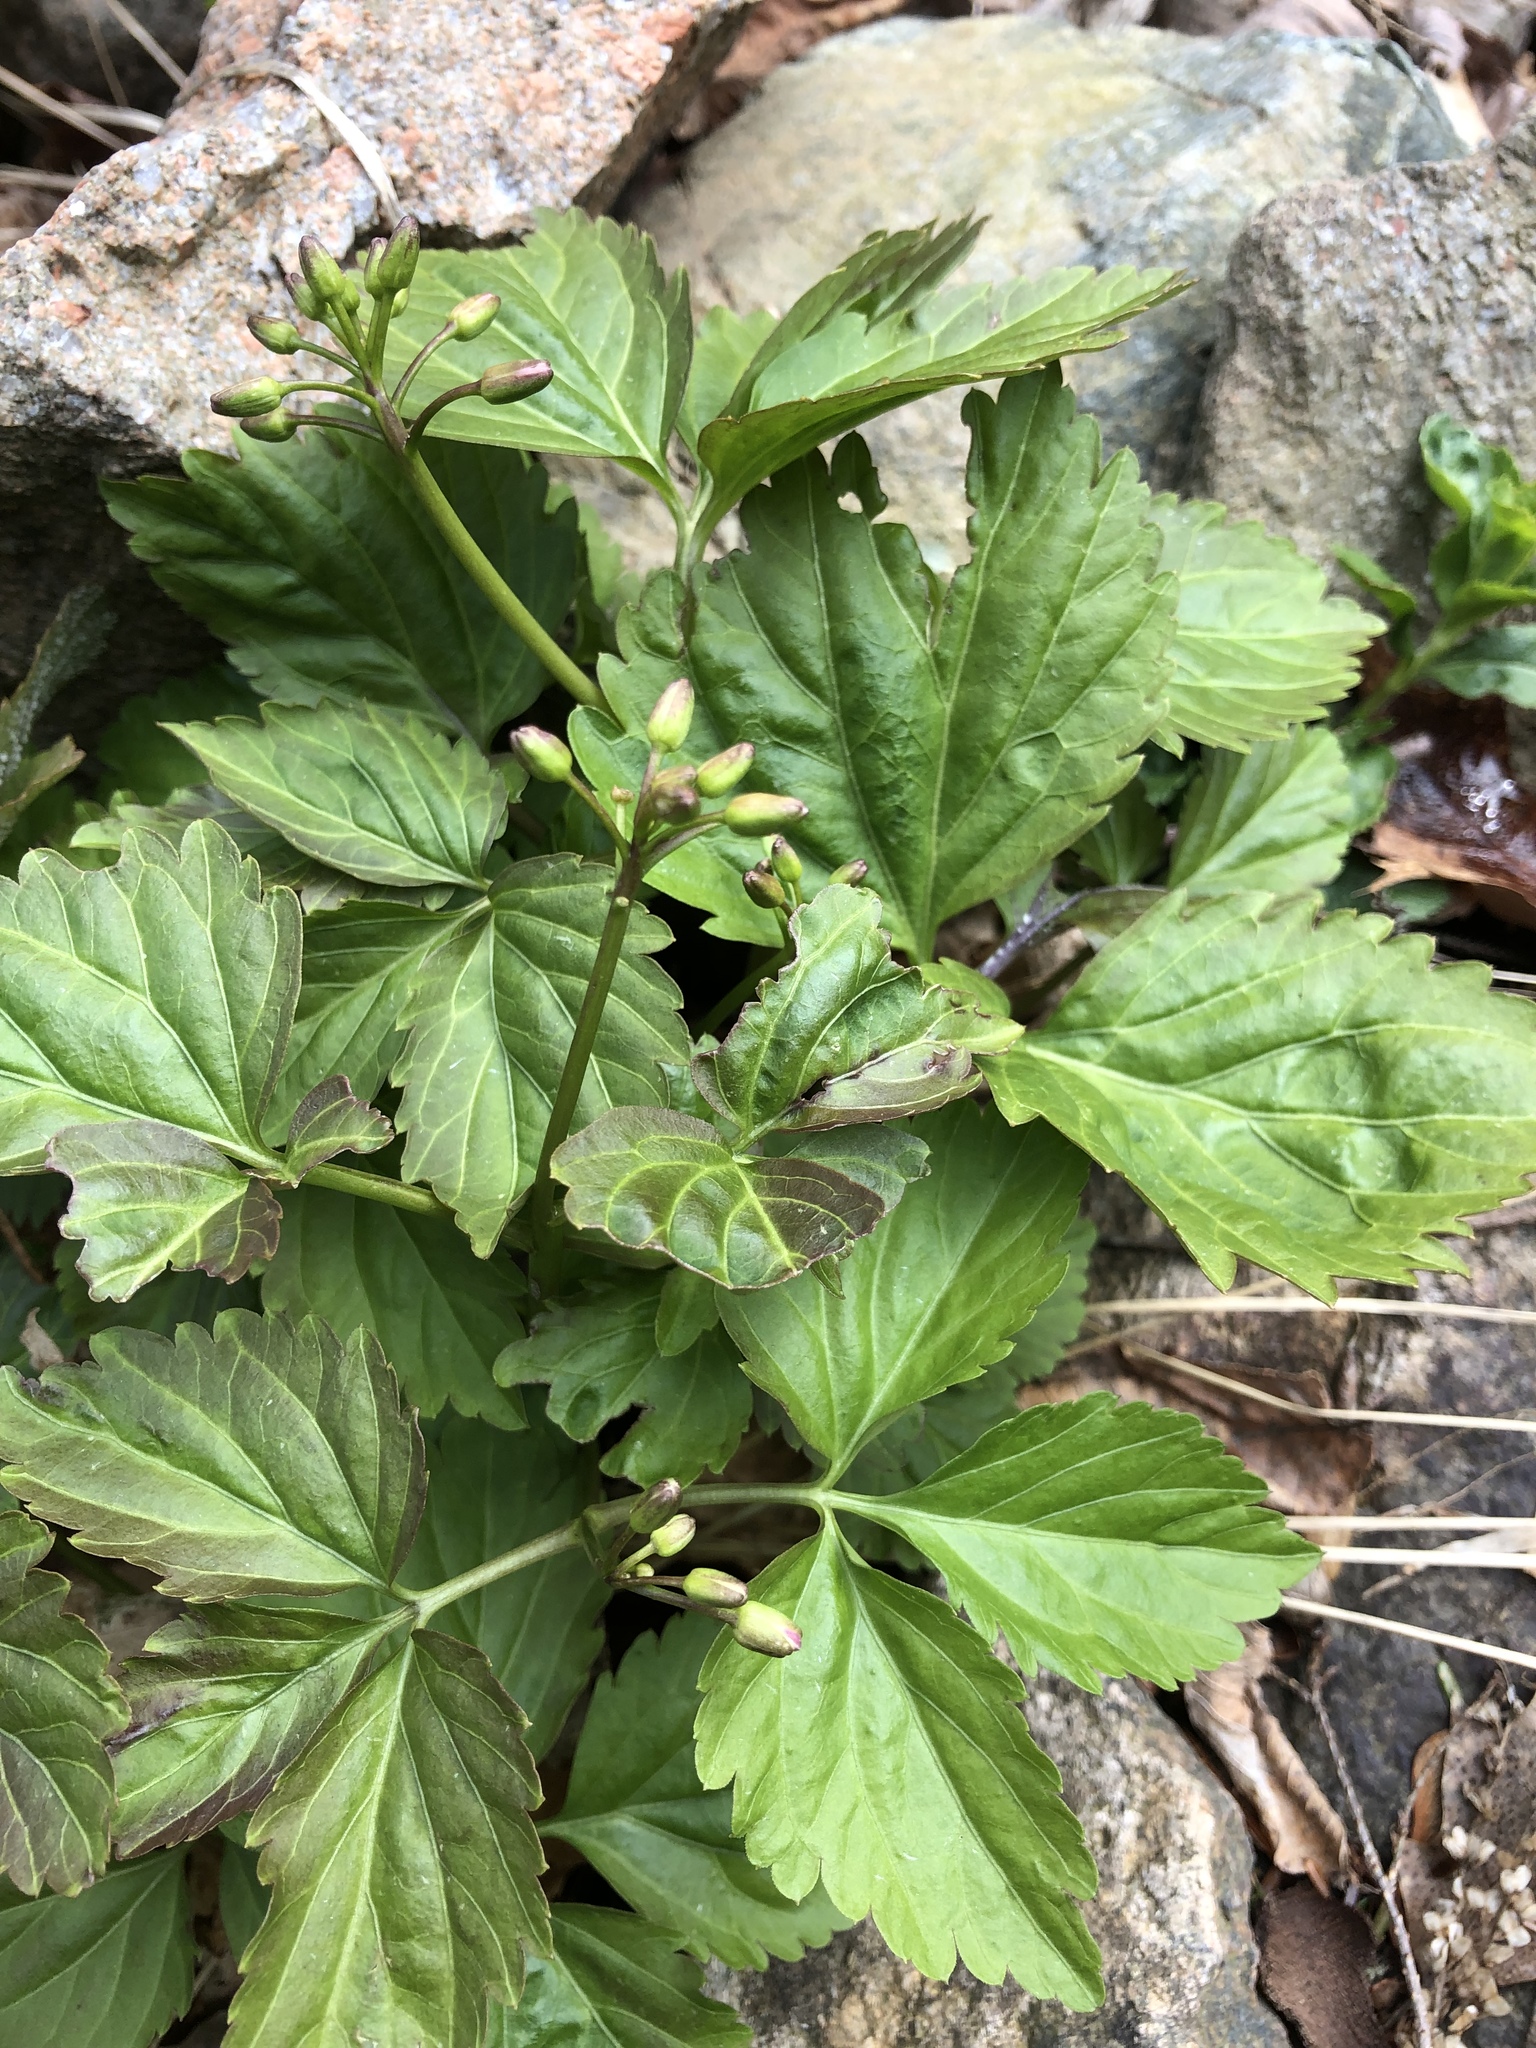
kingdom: Plantae
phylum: Tracheophyta
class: Magnoliopsida
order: Brassicales
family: Brassicaceae
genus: Cardamine
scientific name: Cardamine diphylla
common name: Broad-leaved toothwort
